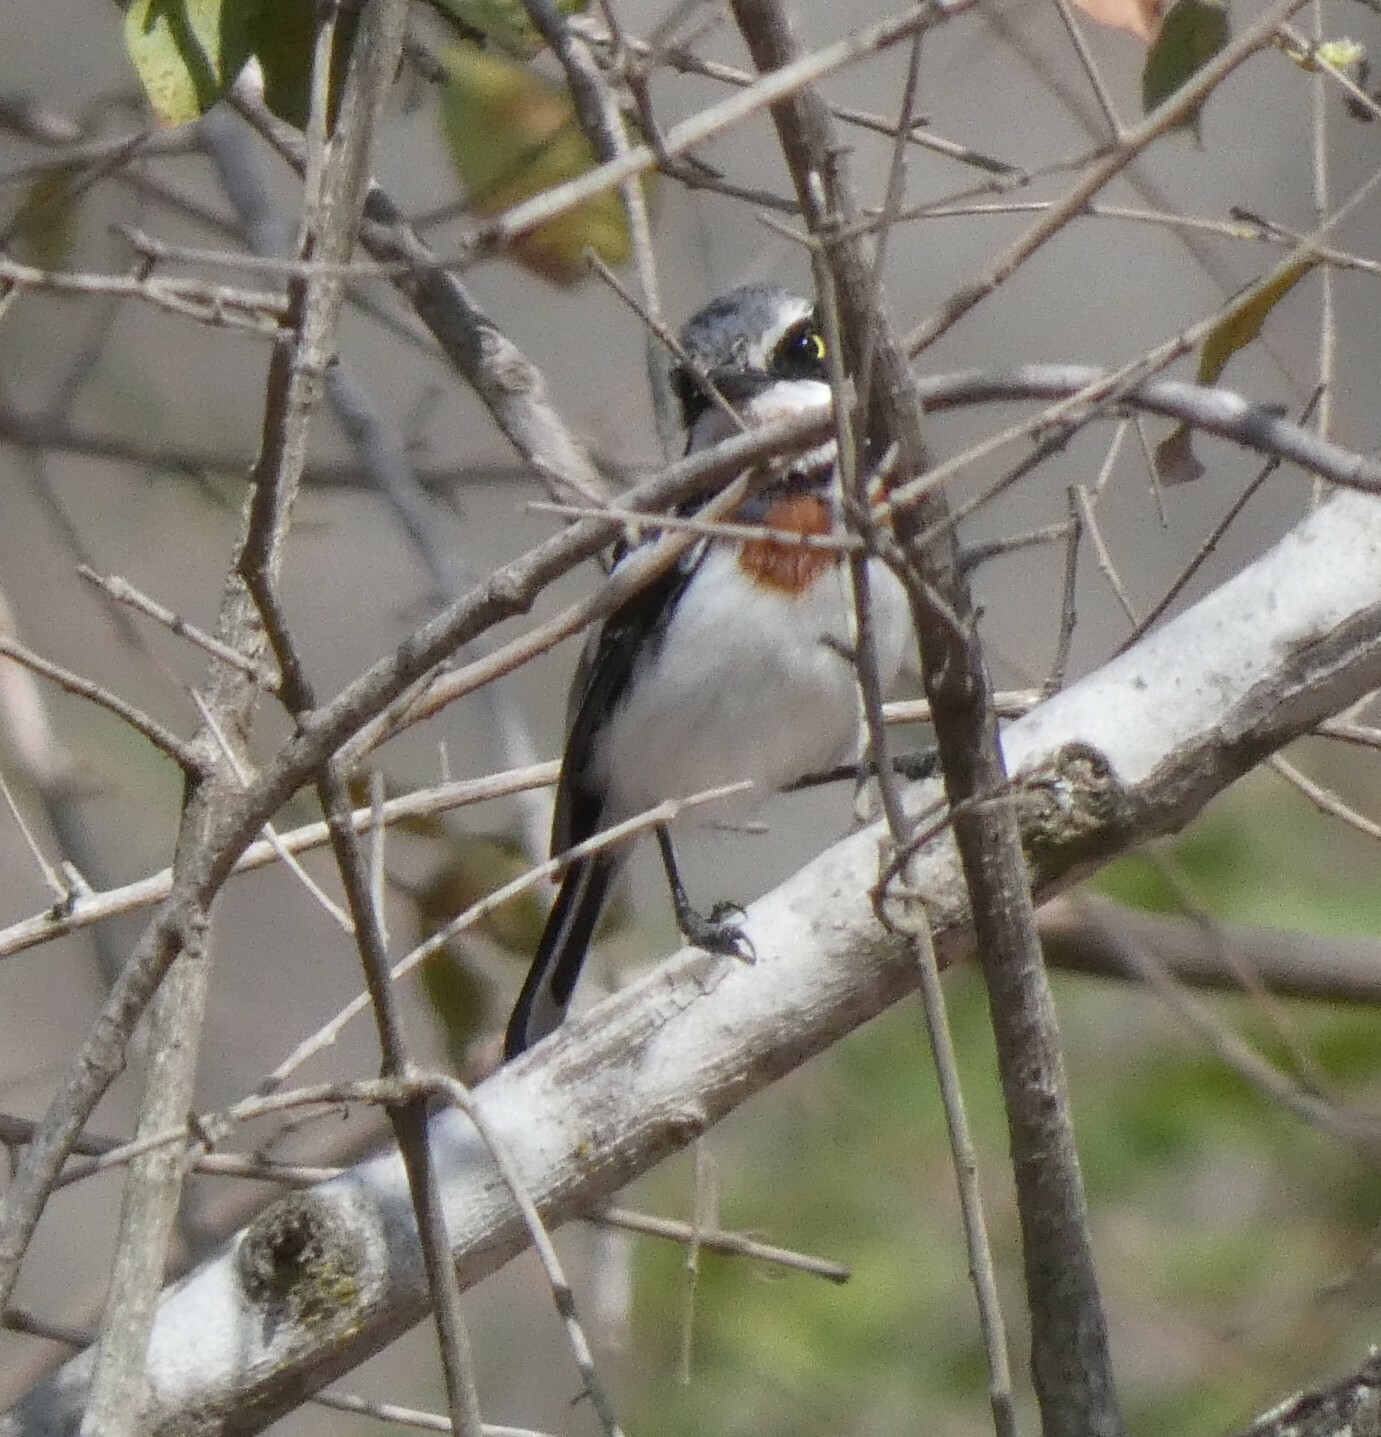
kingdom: Animalia
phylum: Chordata
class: Aves
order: Passeriformes
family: Platysteiridae
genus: Batis
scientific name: Batis molitor
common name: Chinspot batis
